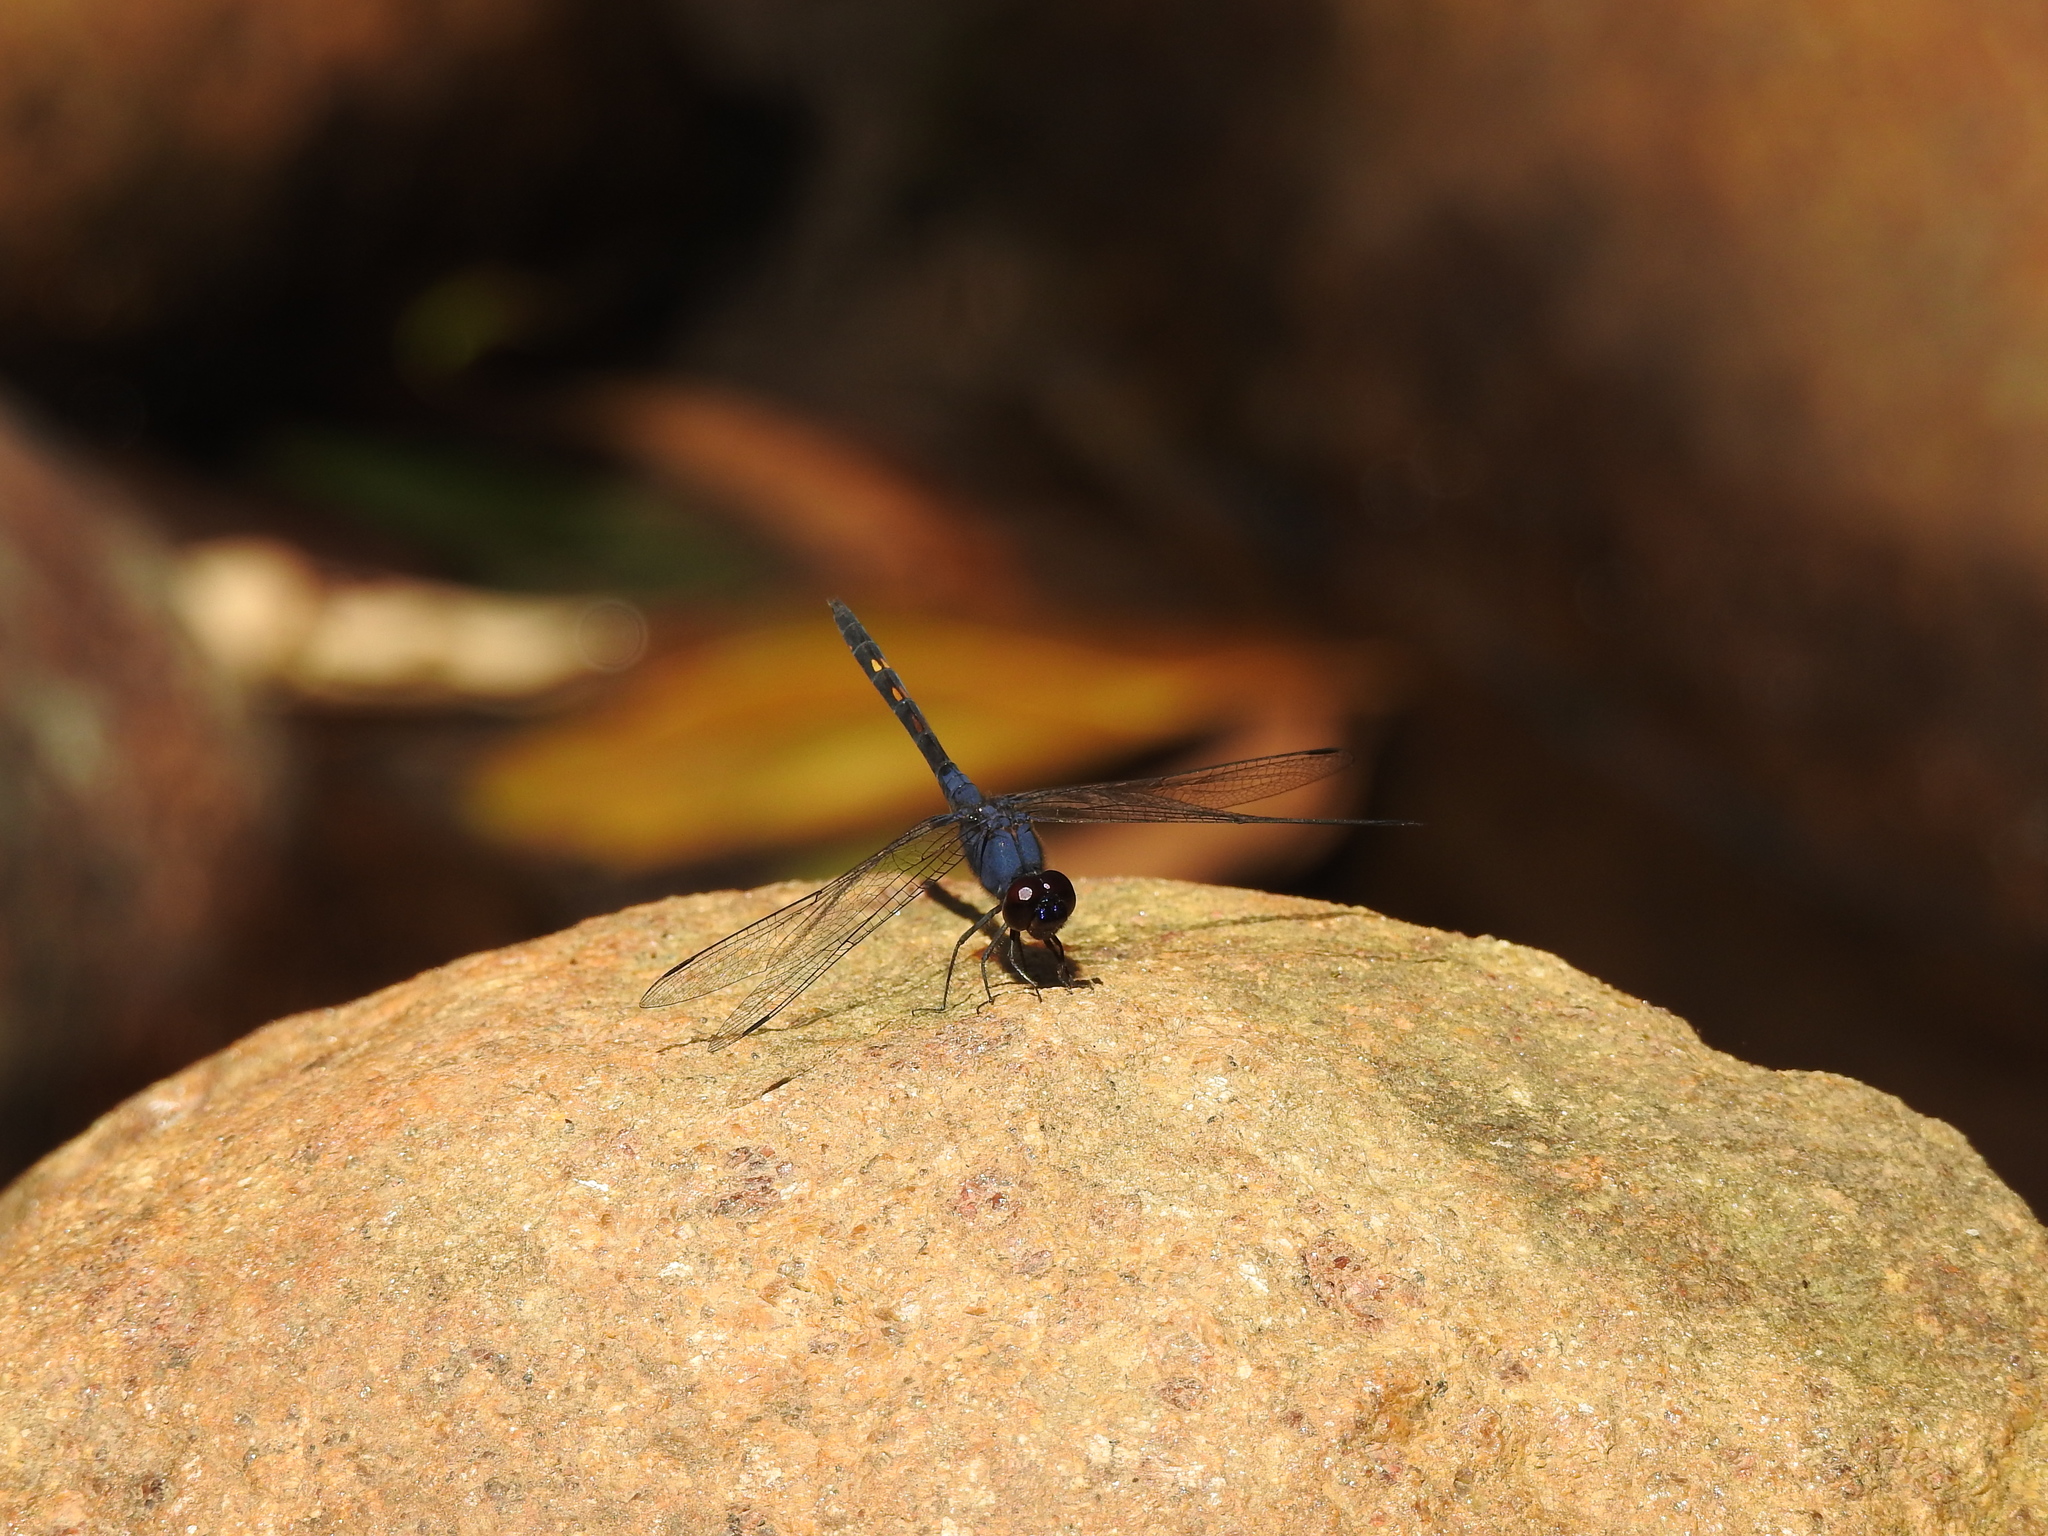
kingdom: Animalia
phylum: Arthropoda
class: Insecta
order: Odonata
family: Libellulidae
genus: Trithemis
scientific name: Trithemis festiva
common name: Indigo dropwing
